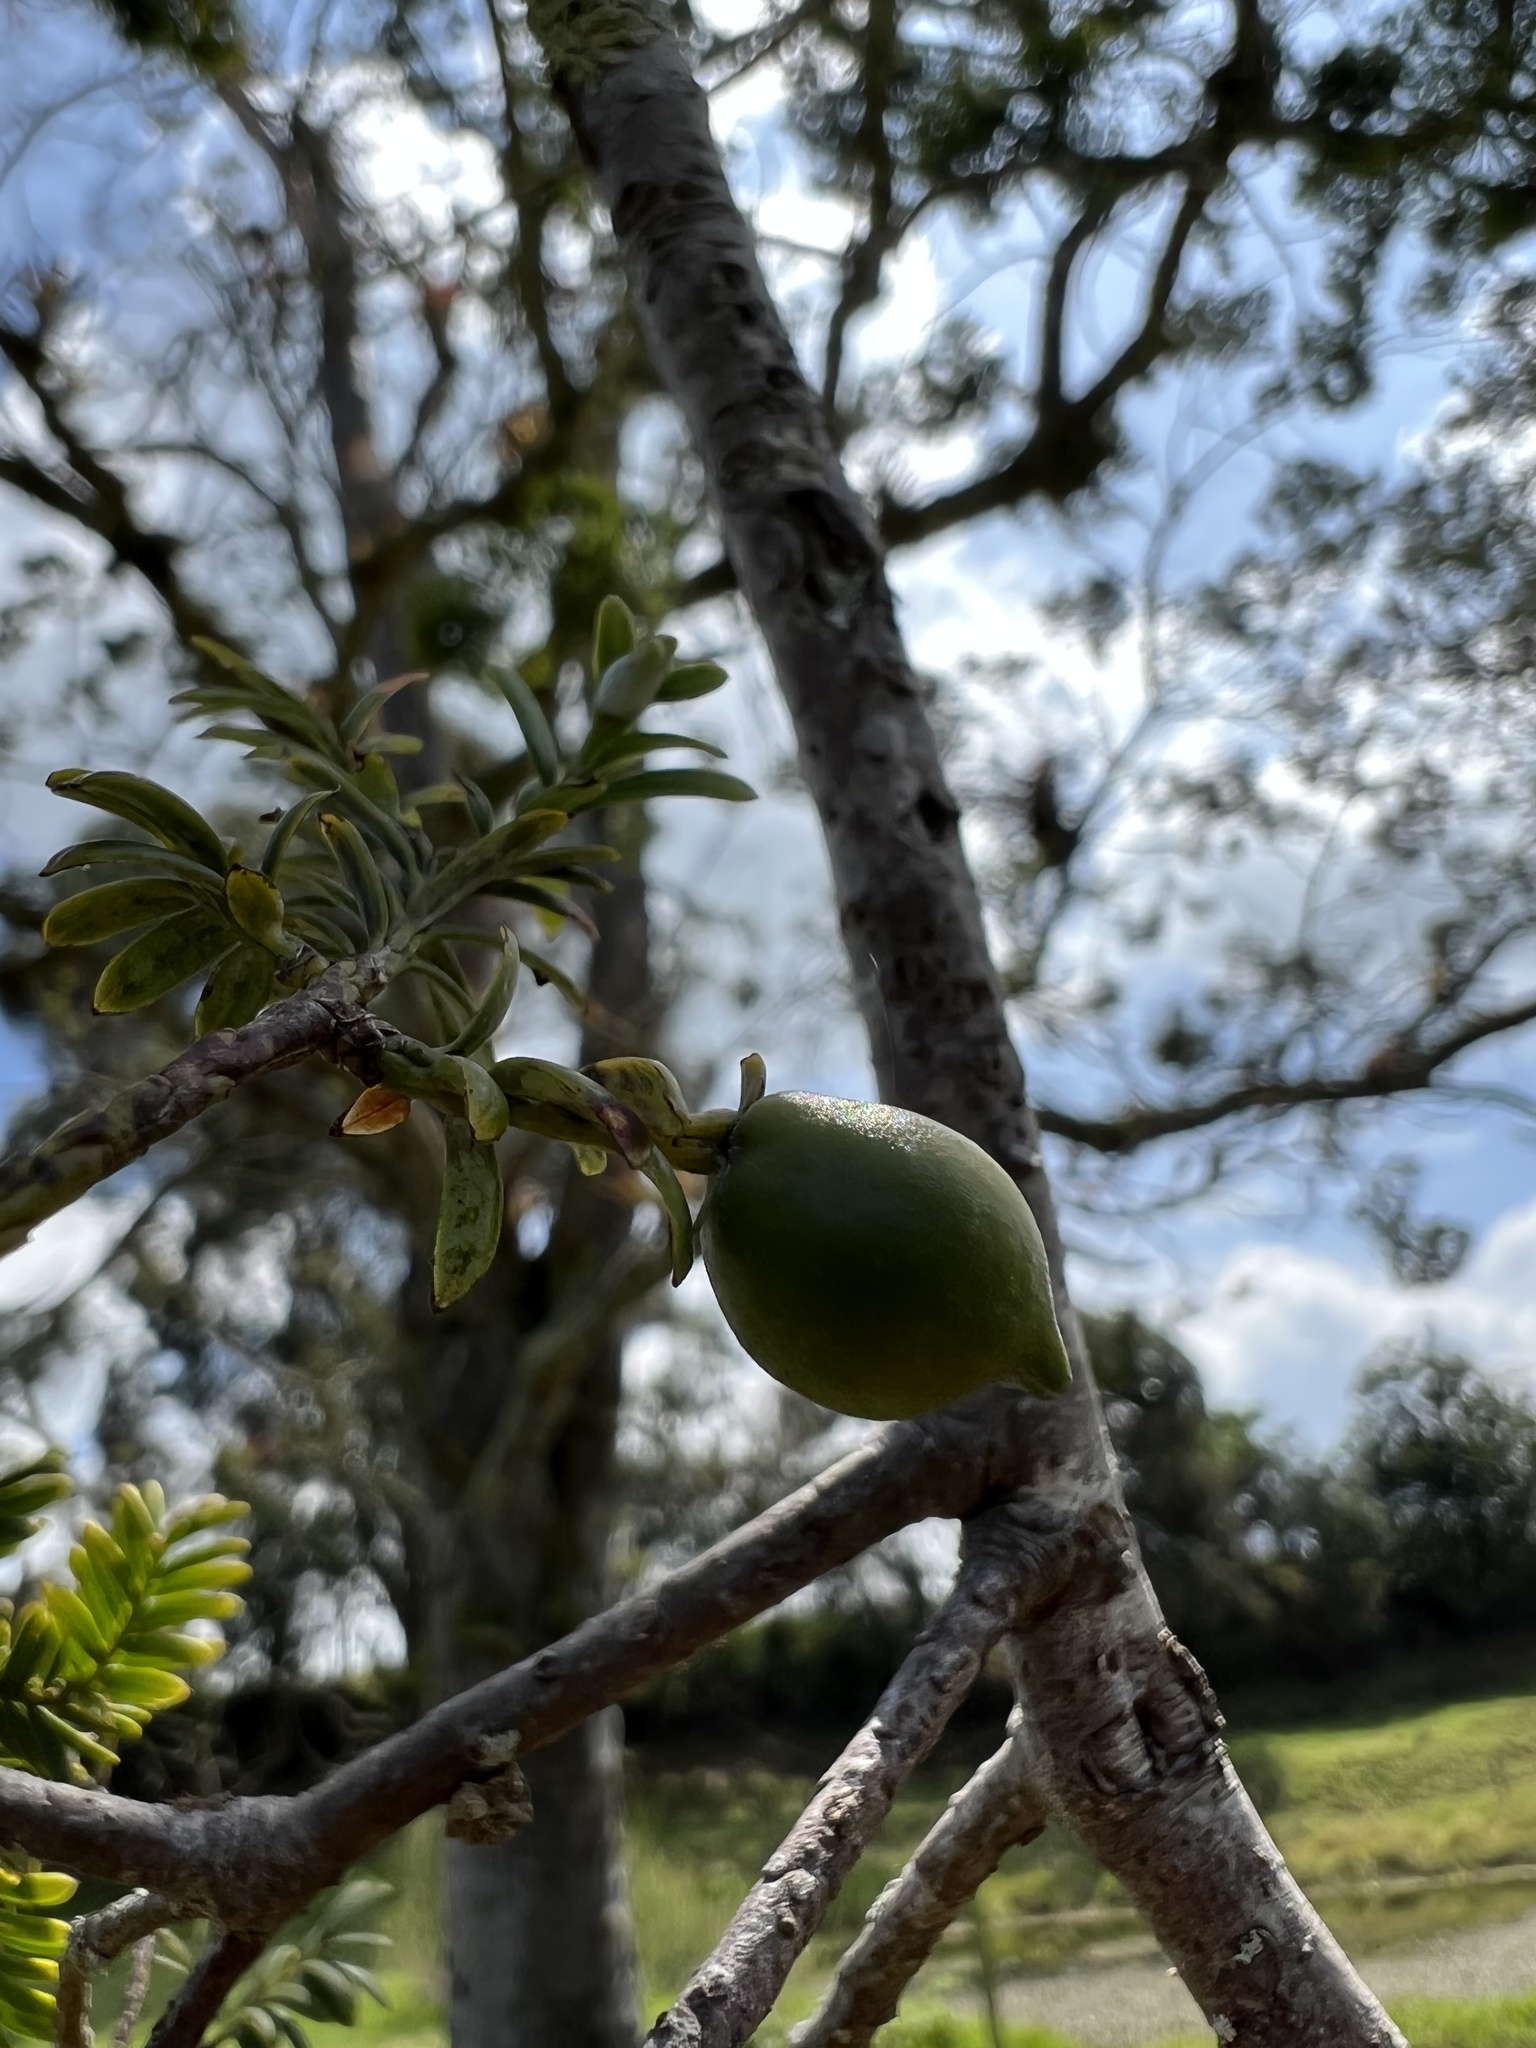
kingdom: Plantae
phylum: Tracheophyta
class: Pinopsida
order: Pinales
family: Podocarpaceae
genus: Prumnopitys
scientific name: Prumnopitys montana
